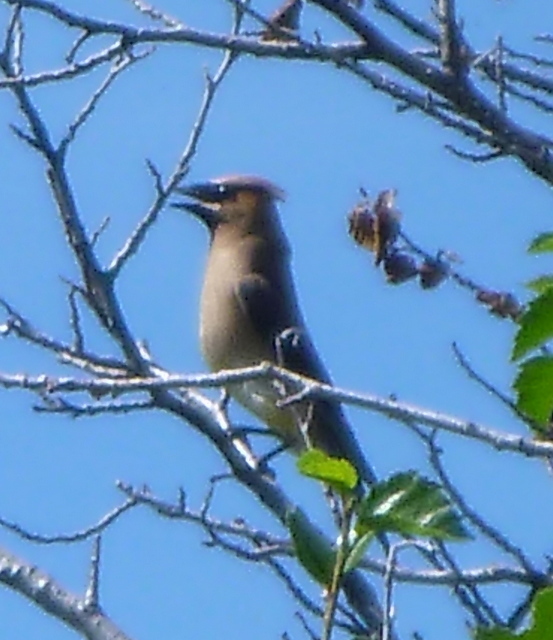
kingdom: Animalia
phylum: Chordata
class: Aves
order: Passeriformes
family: Bombycillidae
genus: Bombycilla
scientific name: Bombycilla cedrorum
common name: Cedar waxwing
